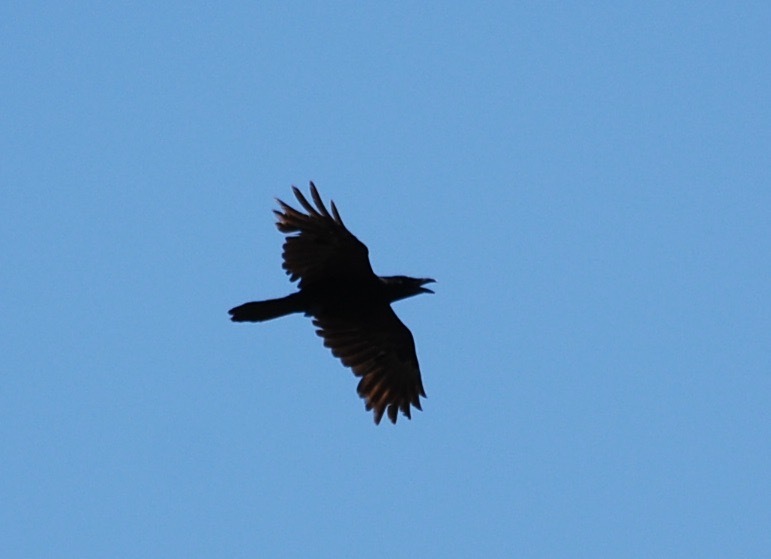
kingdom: Animalia
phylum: Chordata
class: Aves
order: Passeriformes
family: Corvidae
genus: Corvus
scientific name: Corvus corax
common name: Common raven
